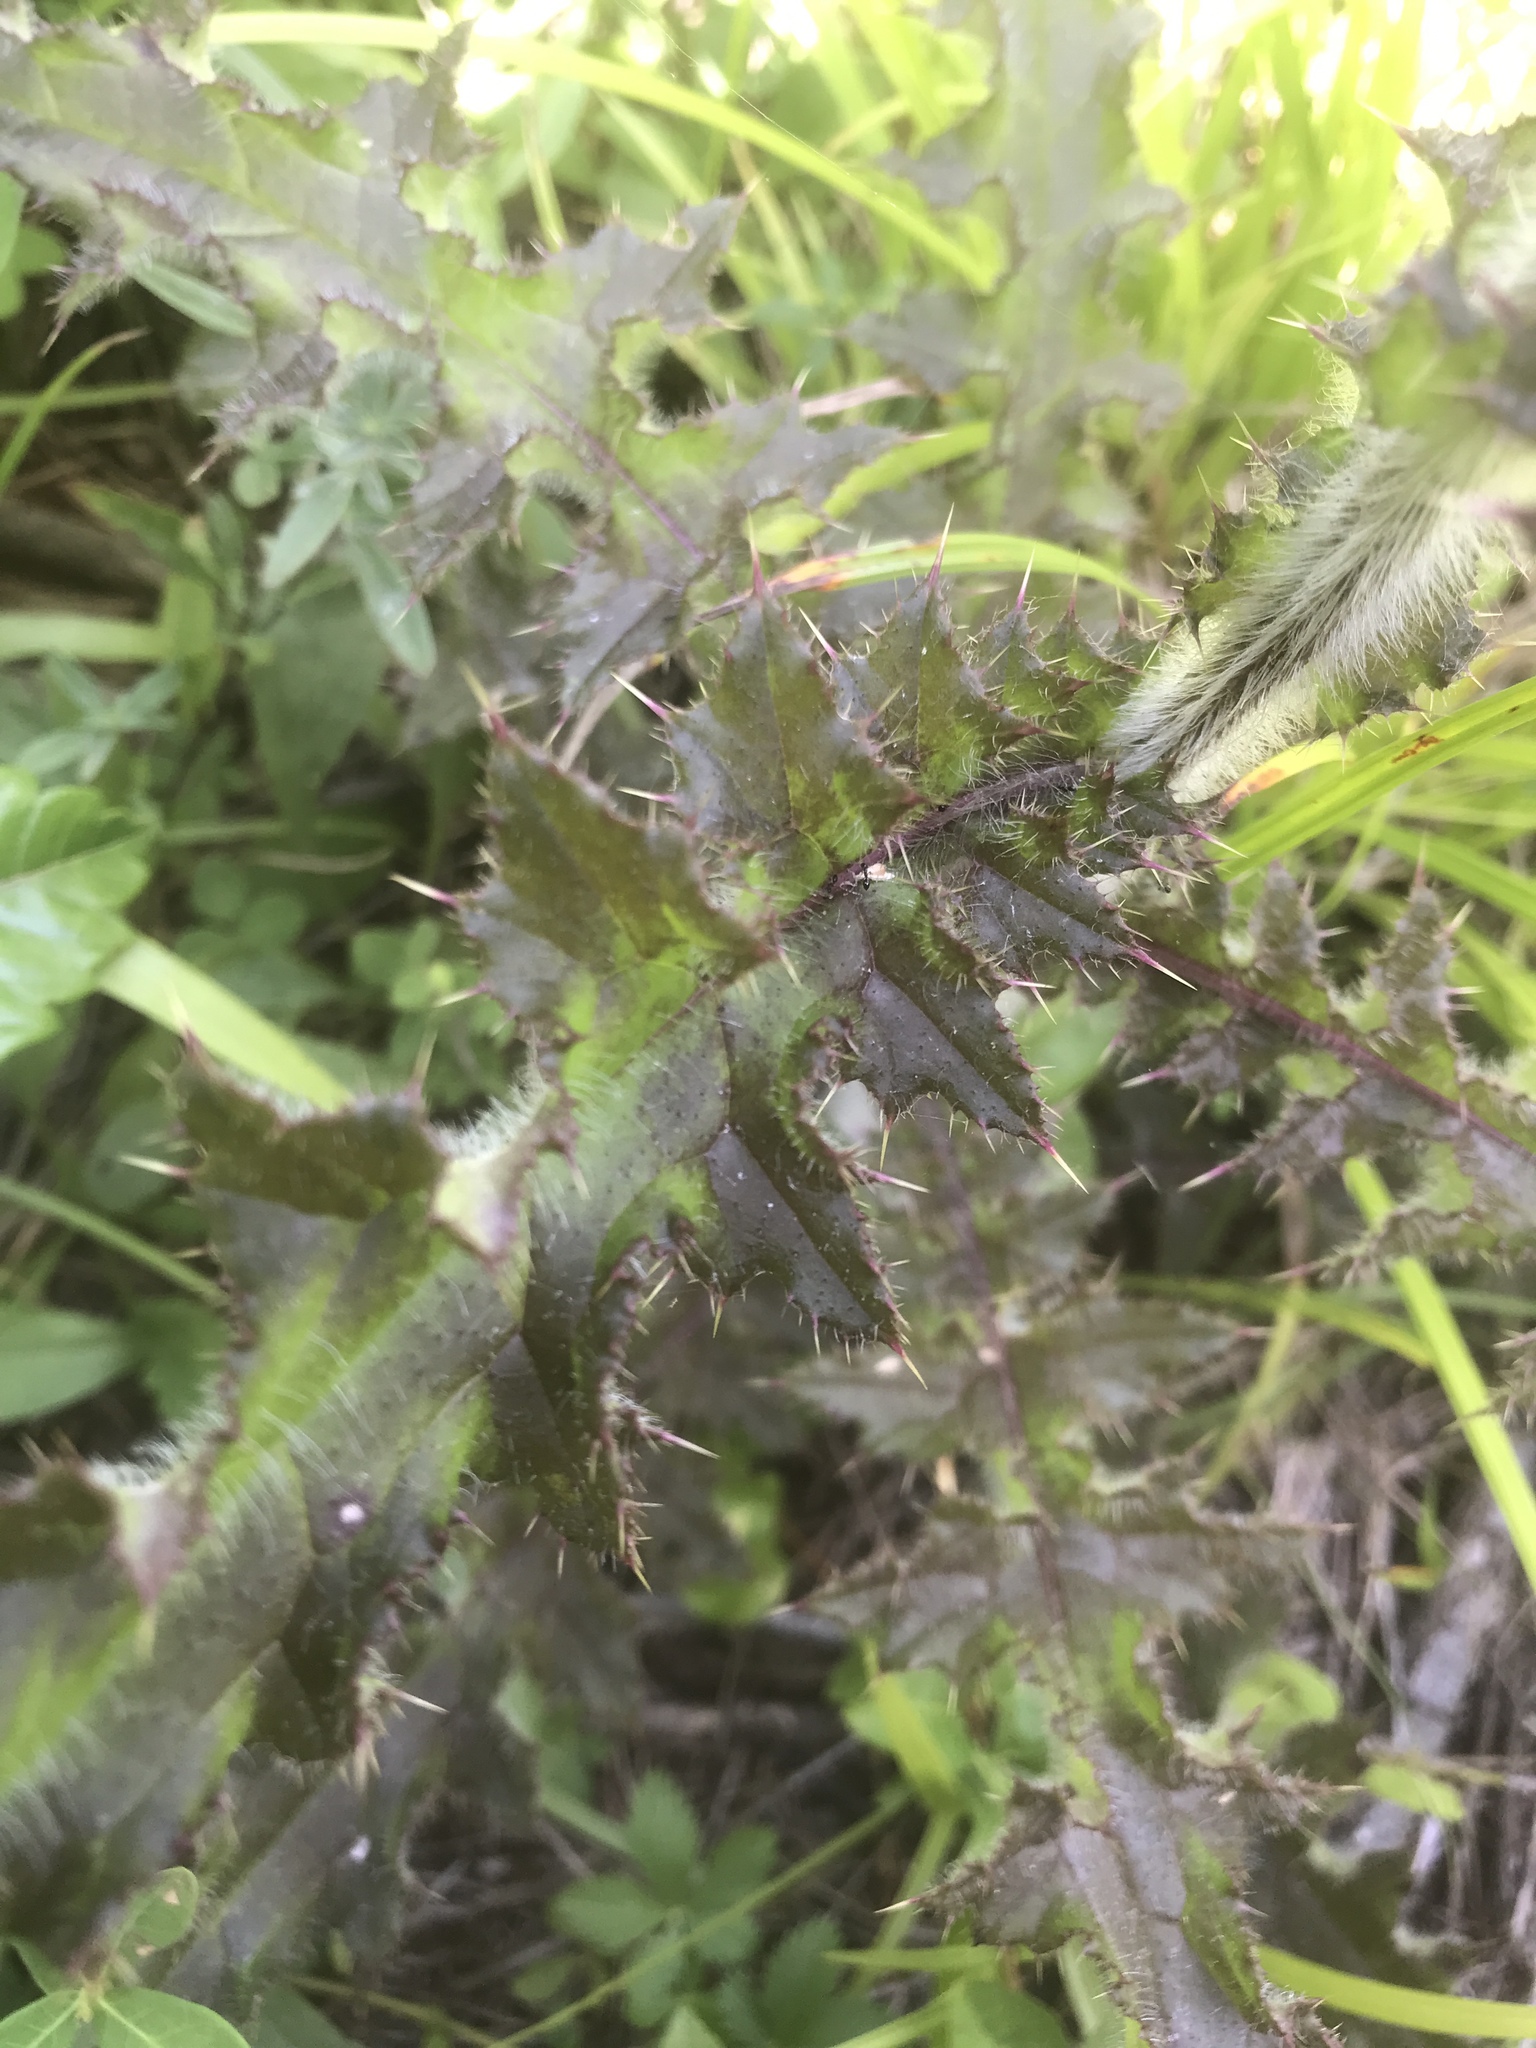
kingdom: Plantae
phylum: Tracheophyta
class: Magnoliopsida
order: Asterales
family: Asteraceae
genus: Cirsium
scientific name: Cirsium pumilum
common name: Pasture thistle
